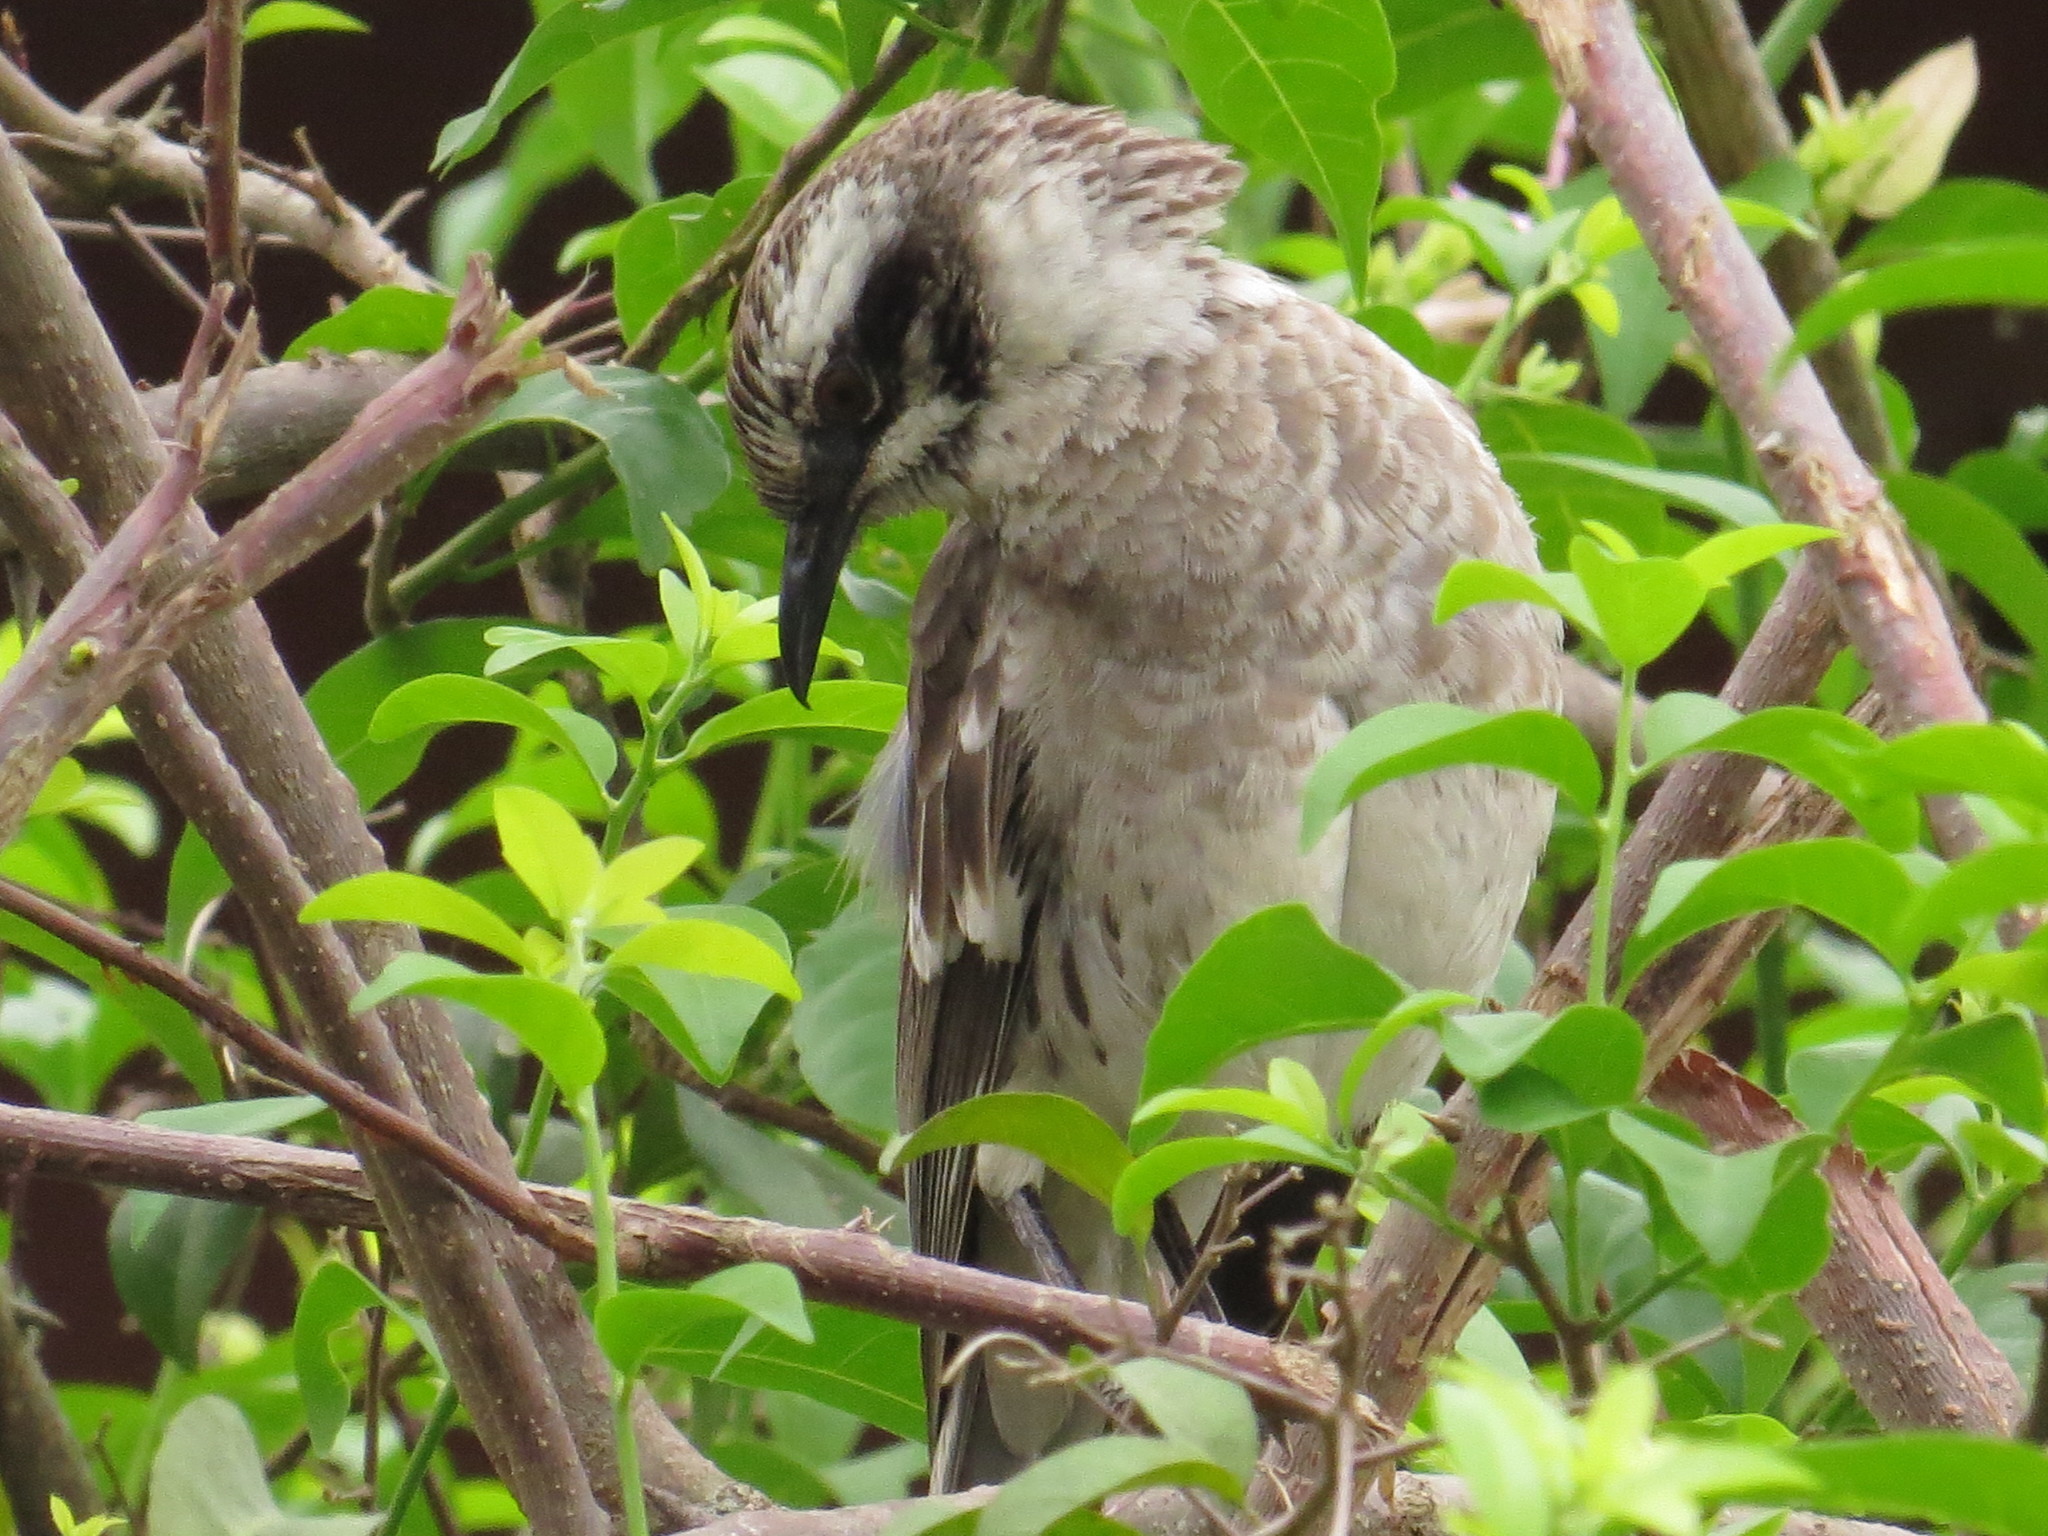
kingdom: Animalia
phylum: Chordata
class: Aves
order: Passeriformes
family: Mimidae
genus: Mimus
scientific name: Mimus longicaudatus
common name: Long-tailed mockingbird
